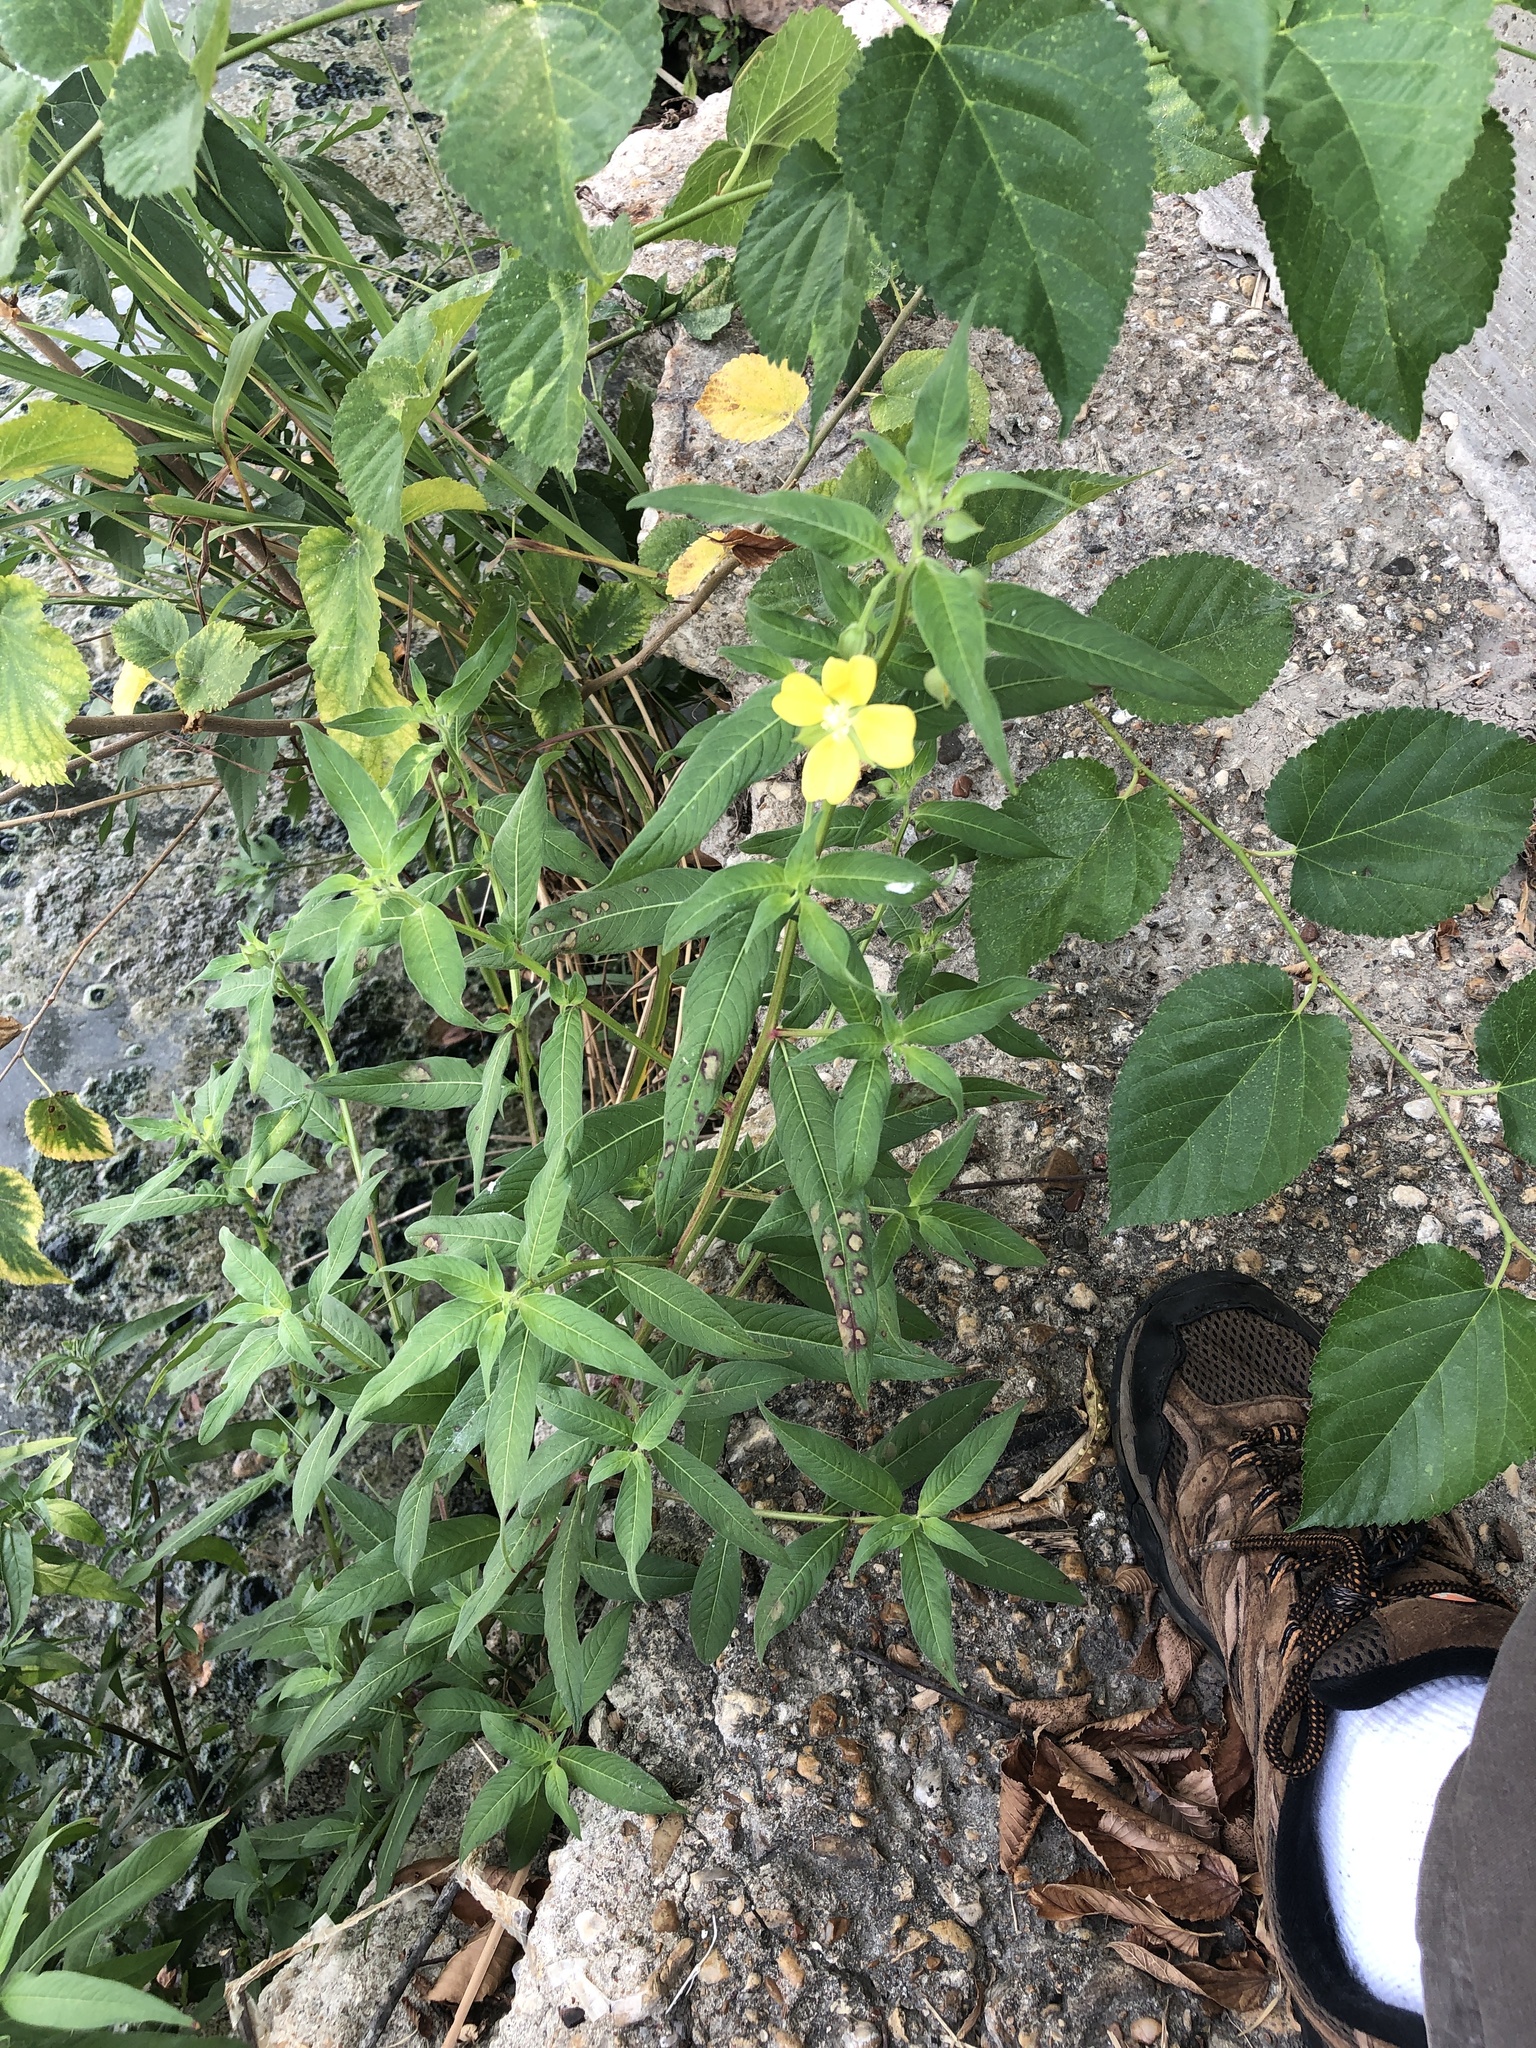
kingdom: Plantae
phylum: Tracheophyta
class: Magnoliopsida
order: Myrtales
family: Onagraceae
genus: Ludwigia
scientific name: Ludwigia octovalvis
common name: Water-primrose
